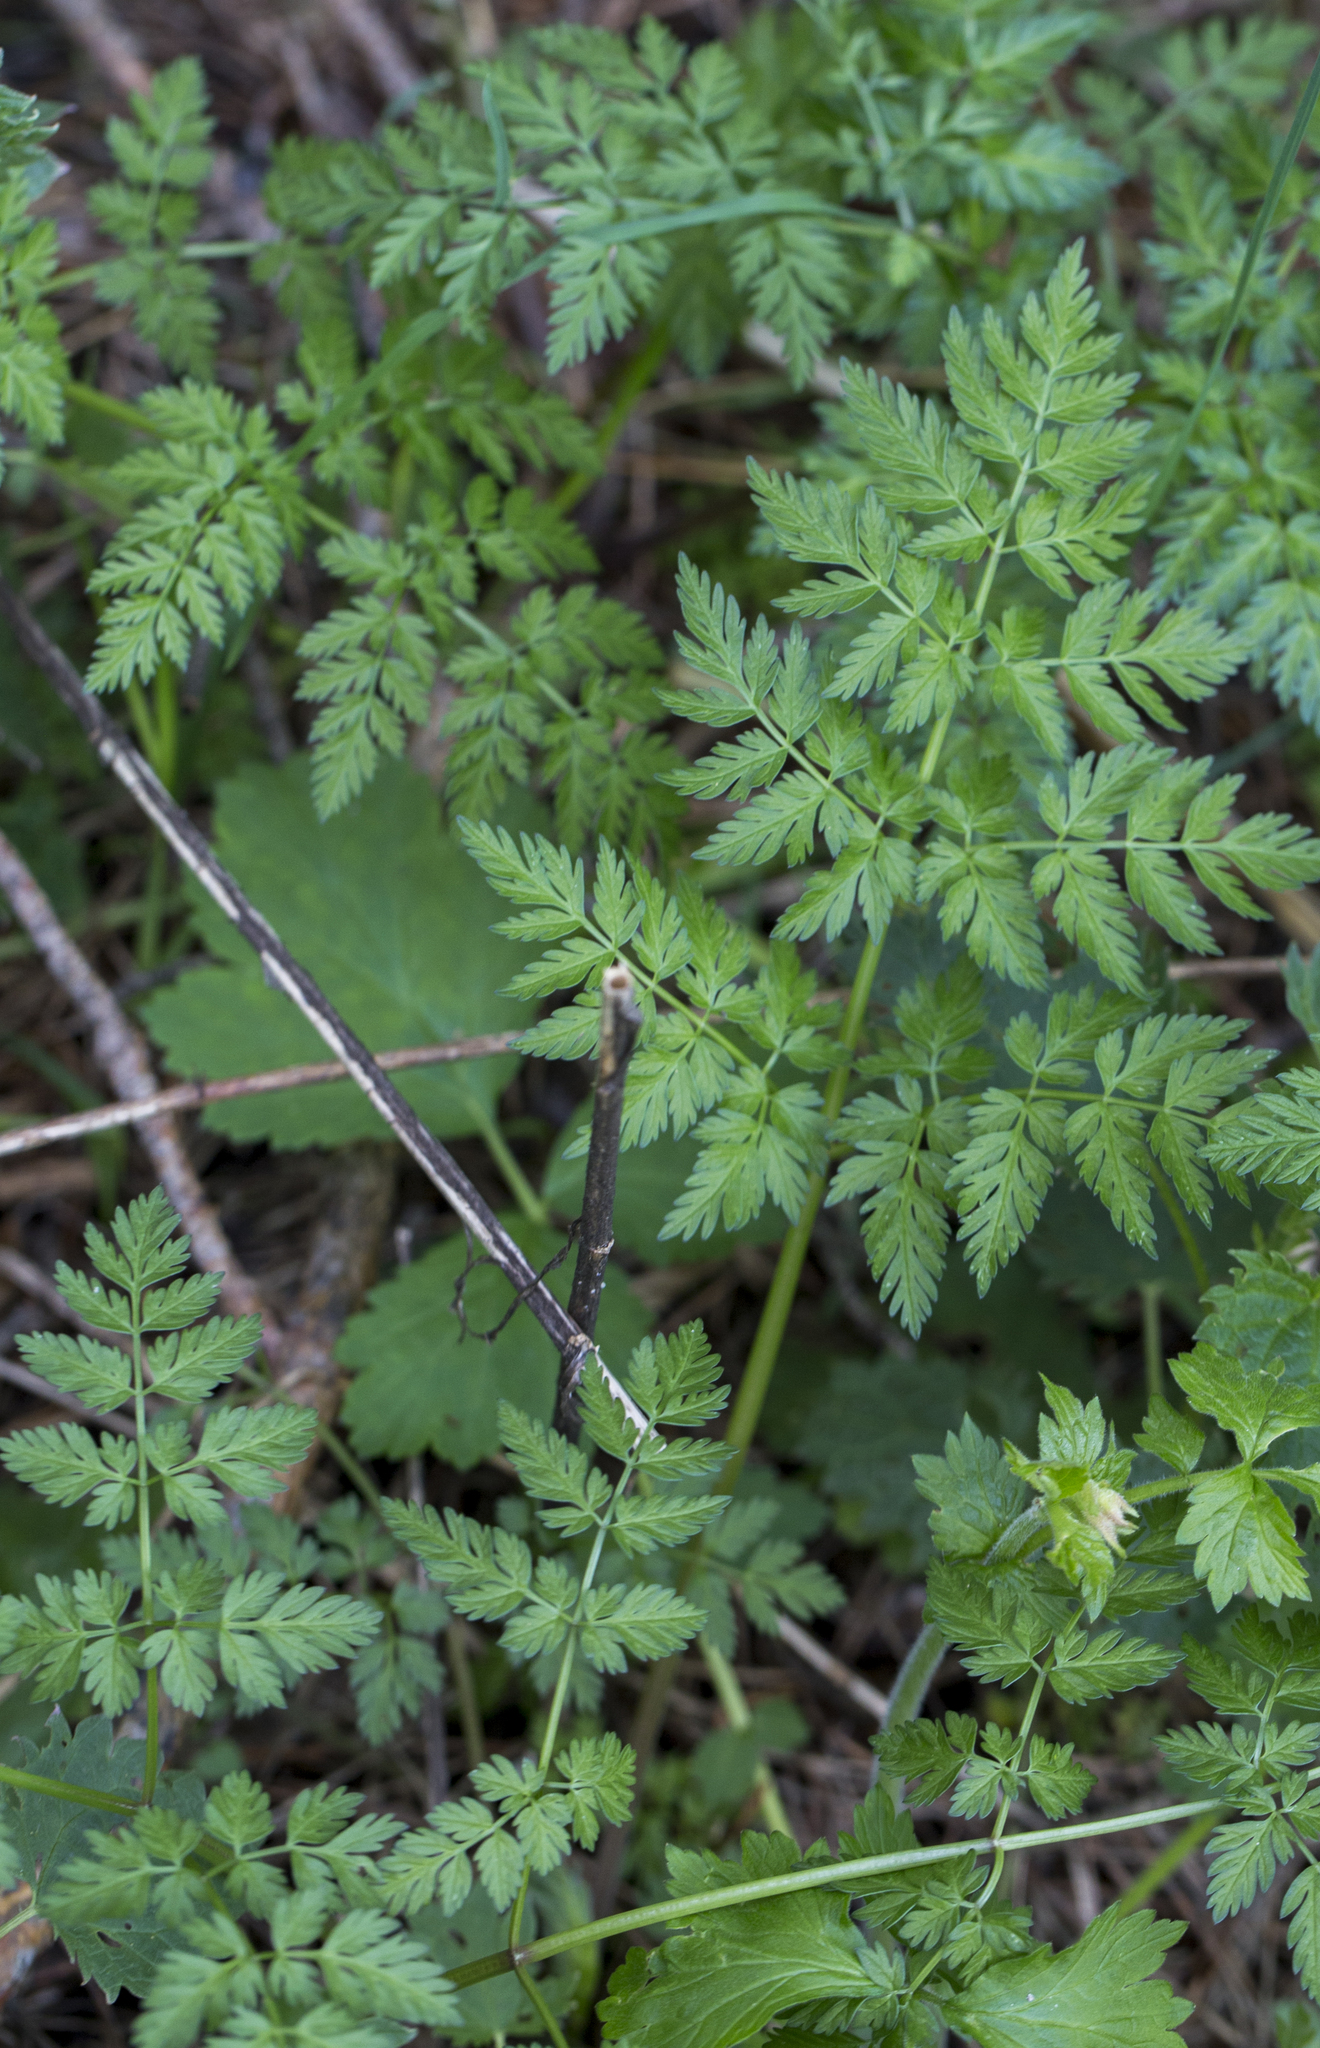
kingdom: Plantae
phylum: Tracheophyta
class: Magnoliopsida
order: Apiales
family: Apiaceae
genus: Anthriscus
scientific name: Anthriscus sylvestris
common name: Cow parsley
